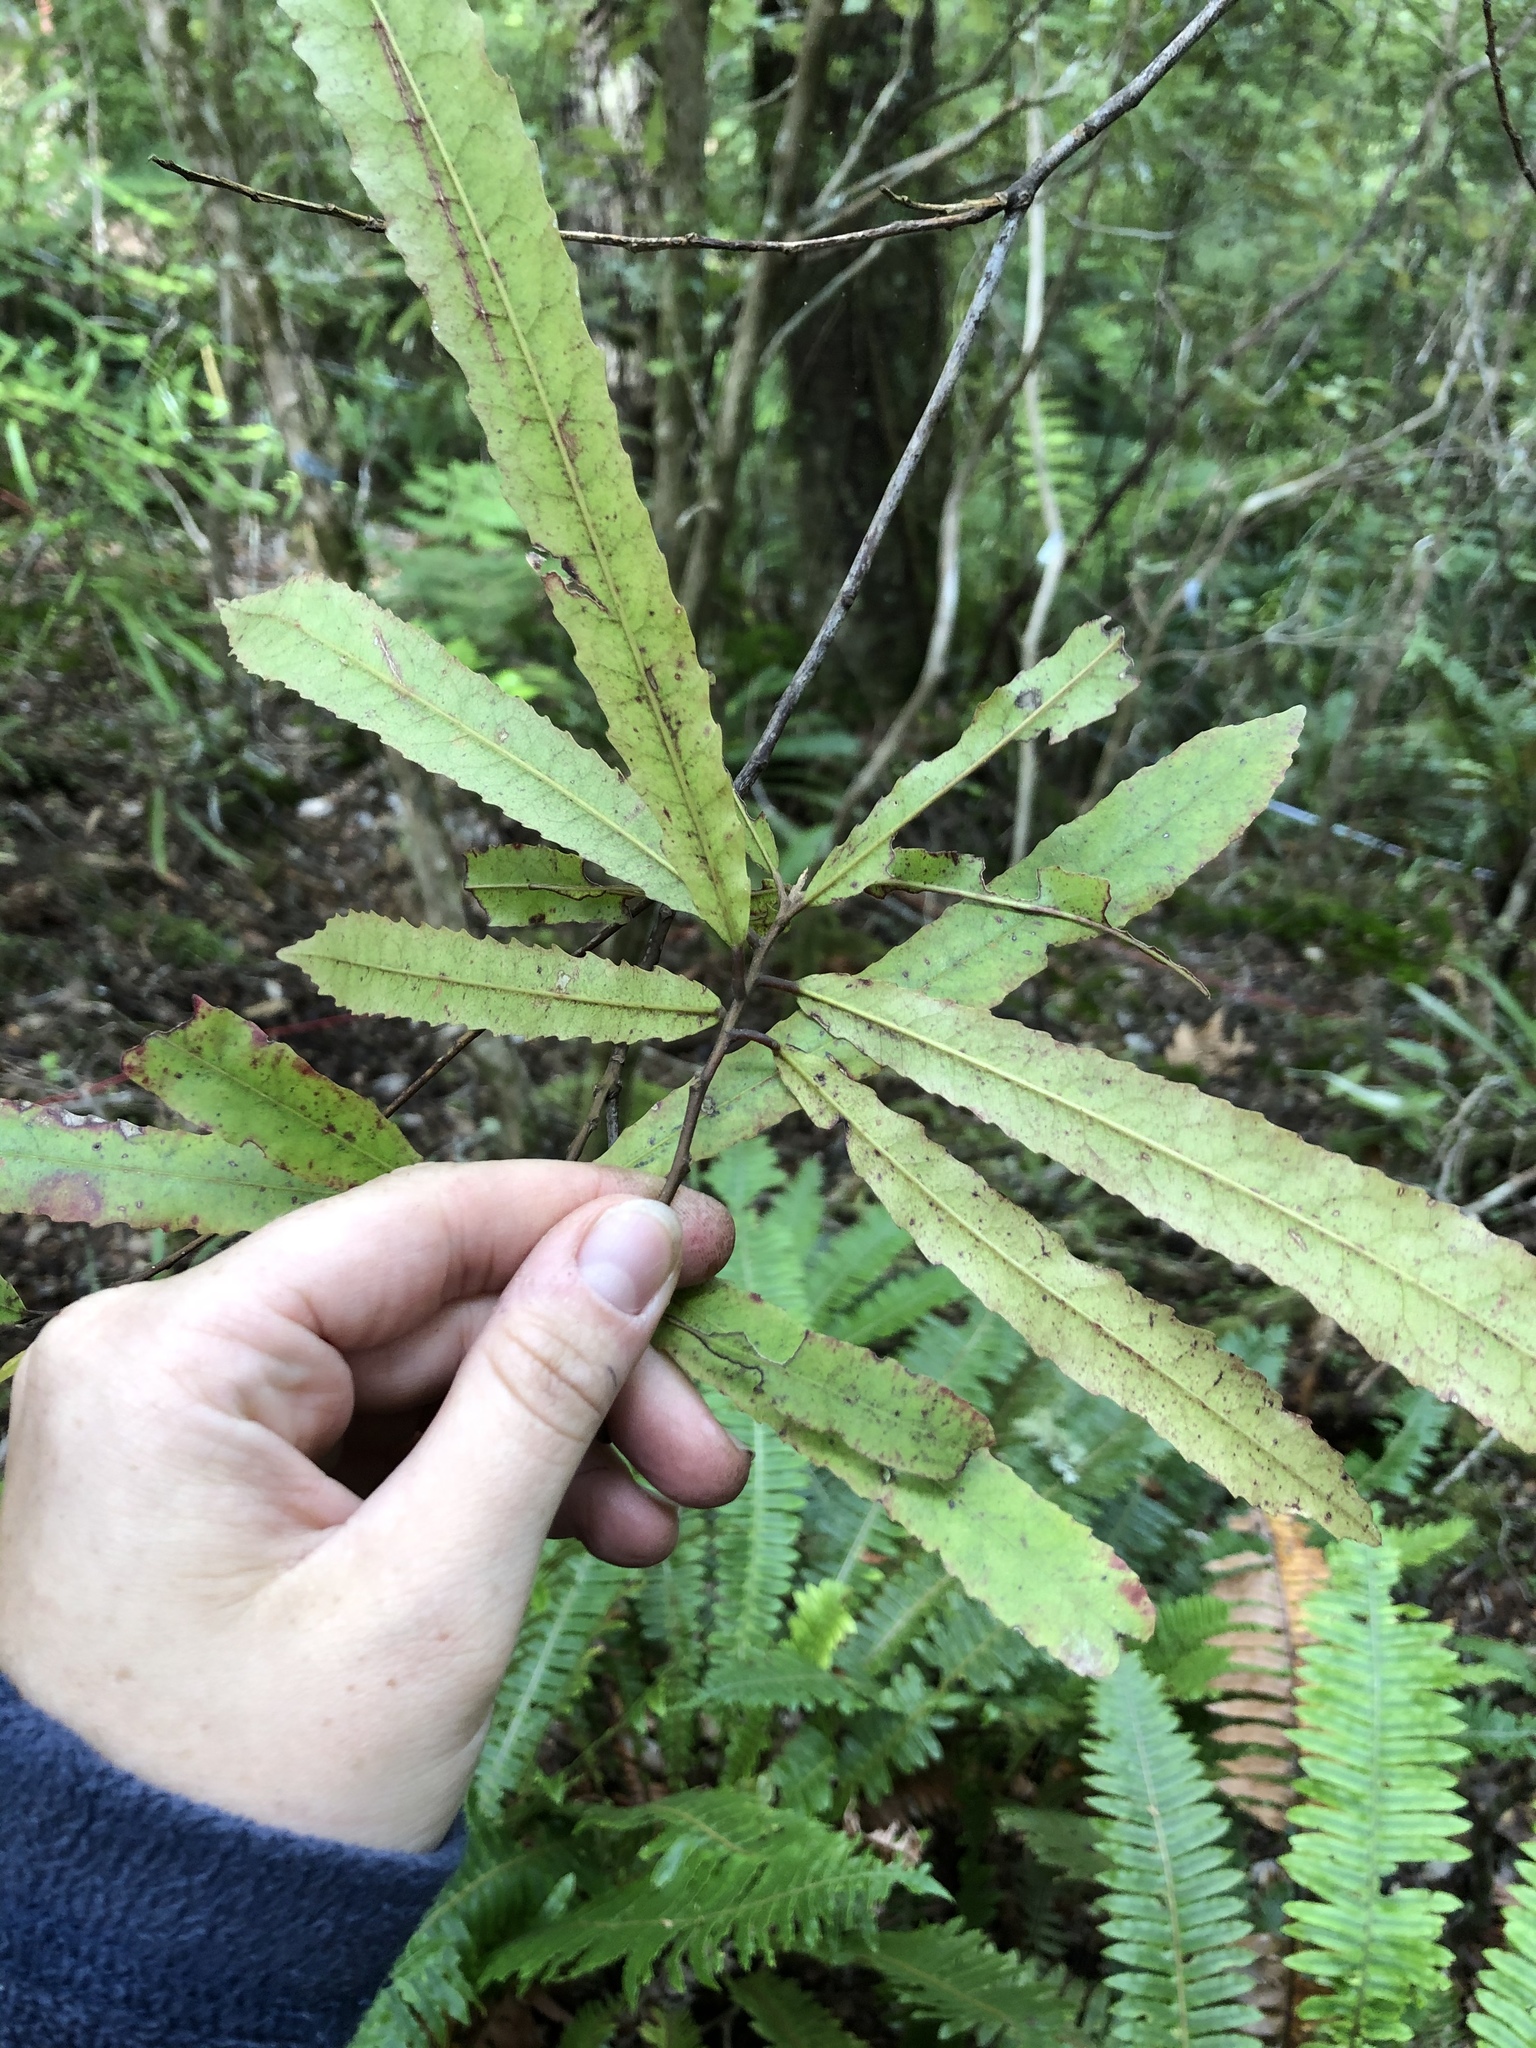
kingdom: Plantae
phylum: Tracheophyta
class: Magnoliopsida
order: Oxalidales
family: Elaeocarpaceae
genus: Elaeocarpus
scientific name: Elaeocarpus dentatus
